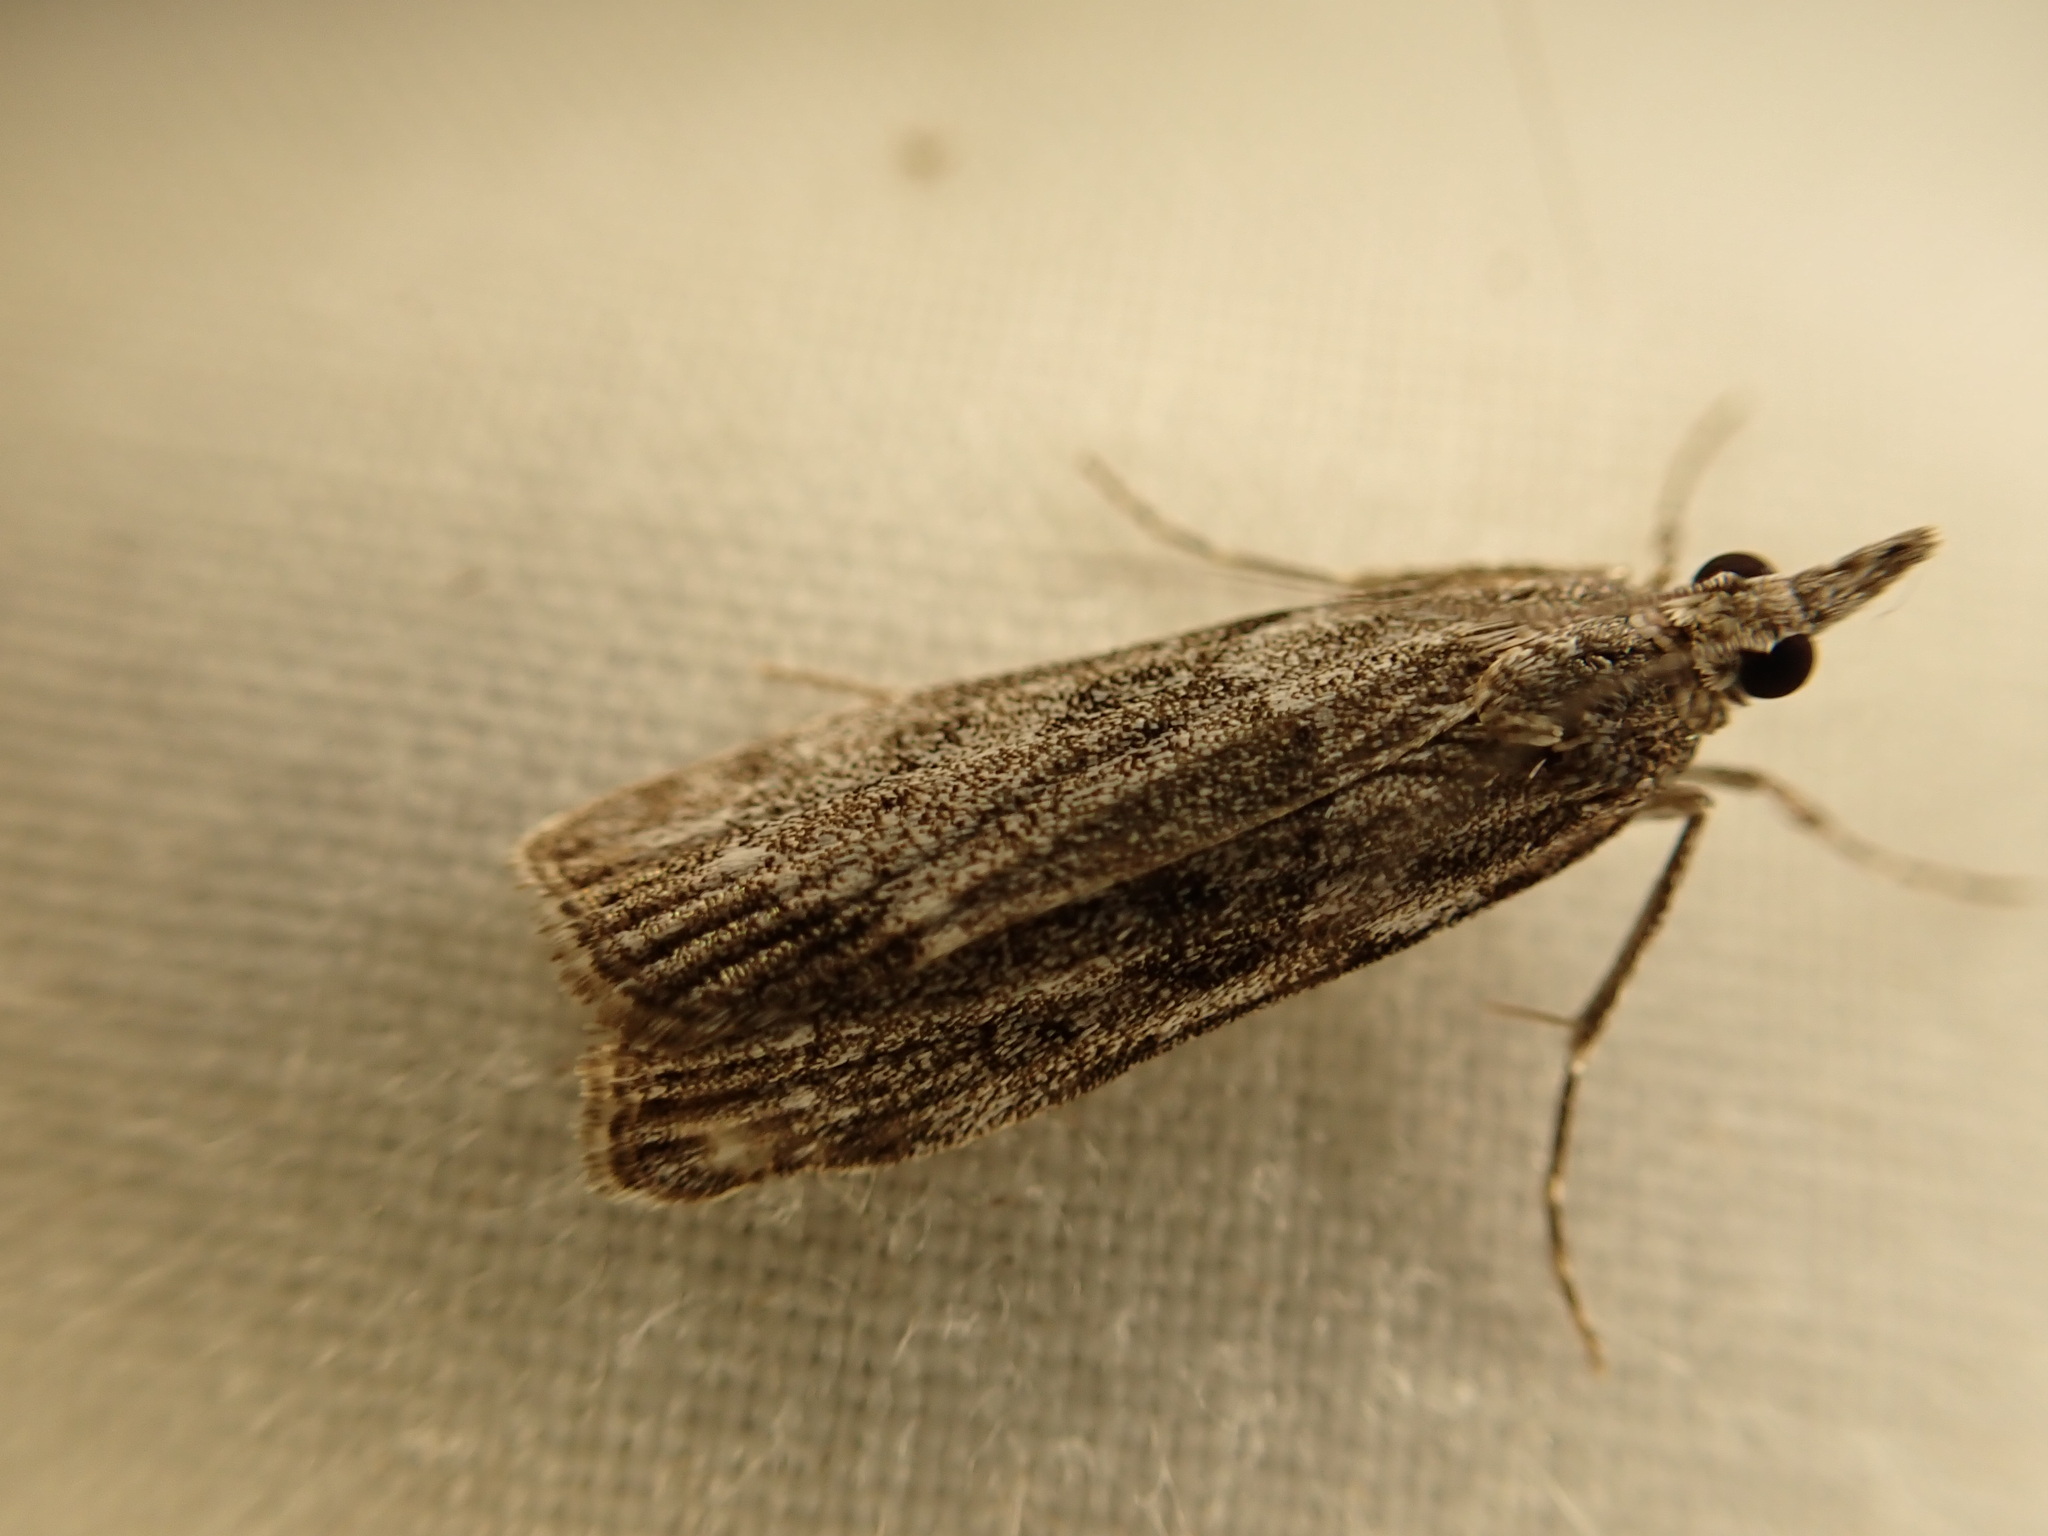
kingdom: Animalia
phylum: Arthropoda
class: Insecta
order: Lepidoptera
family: Crambidae
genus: Eudonia
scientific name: Eudonia submarginalis
